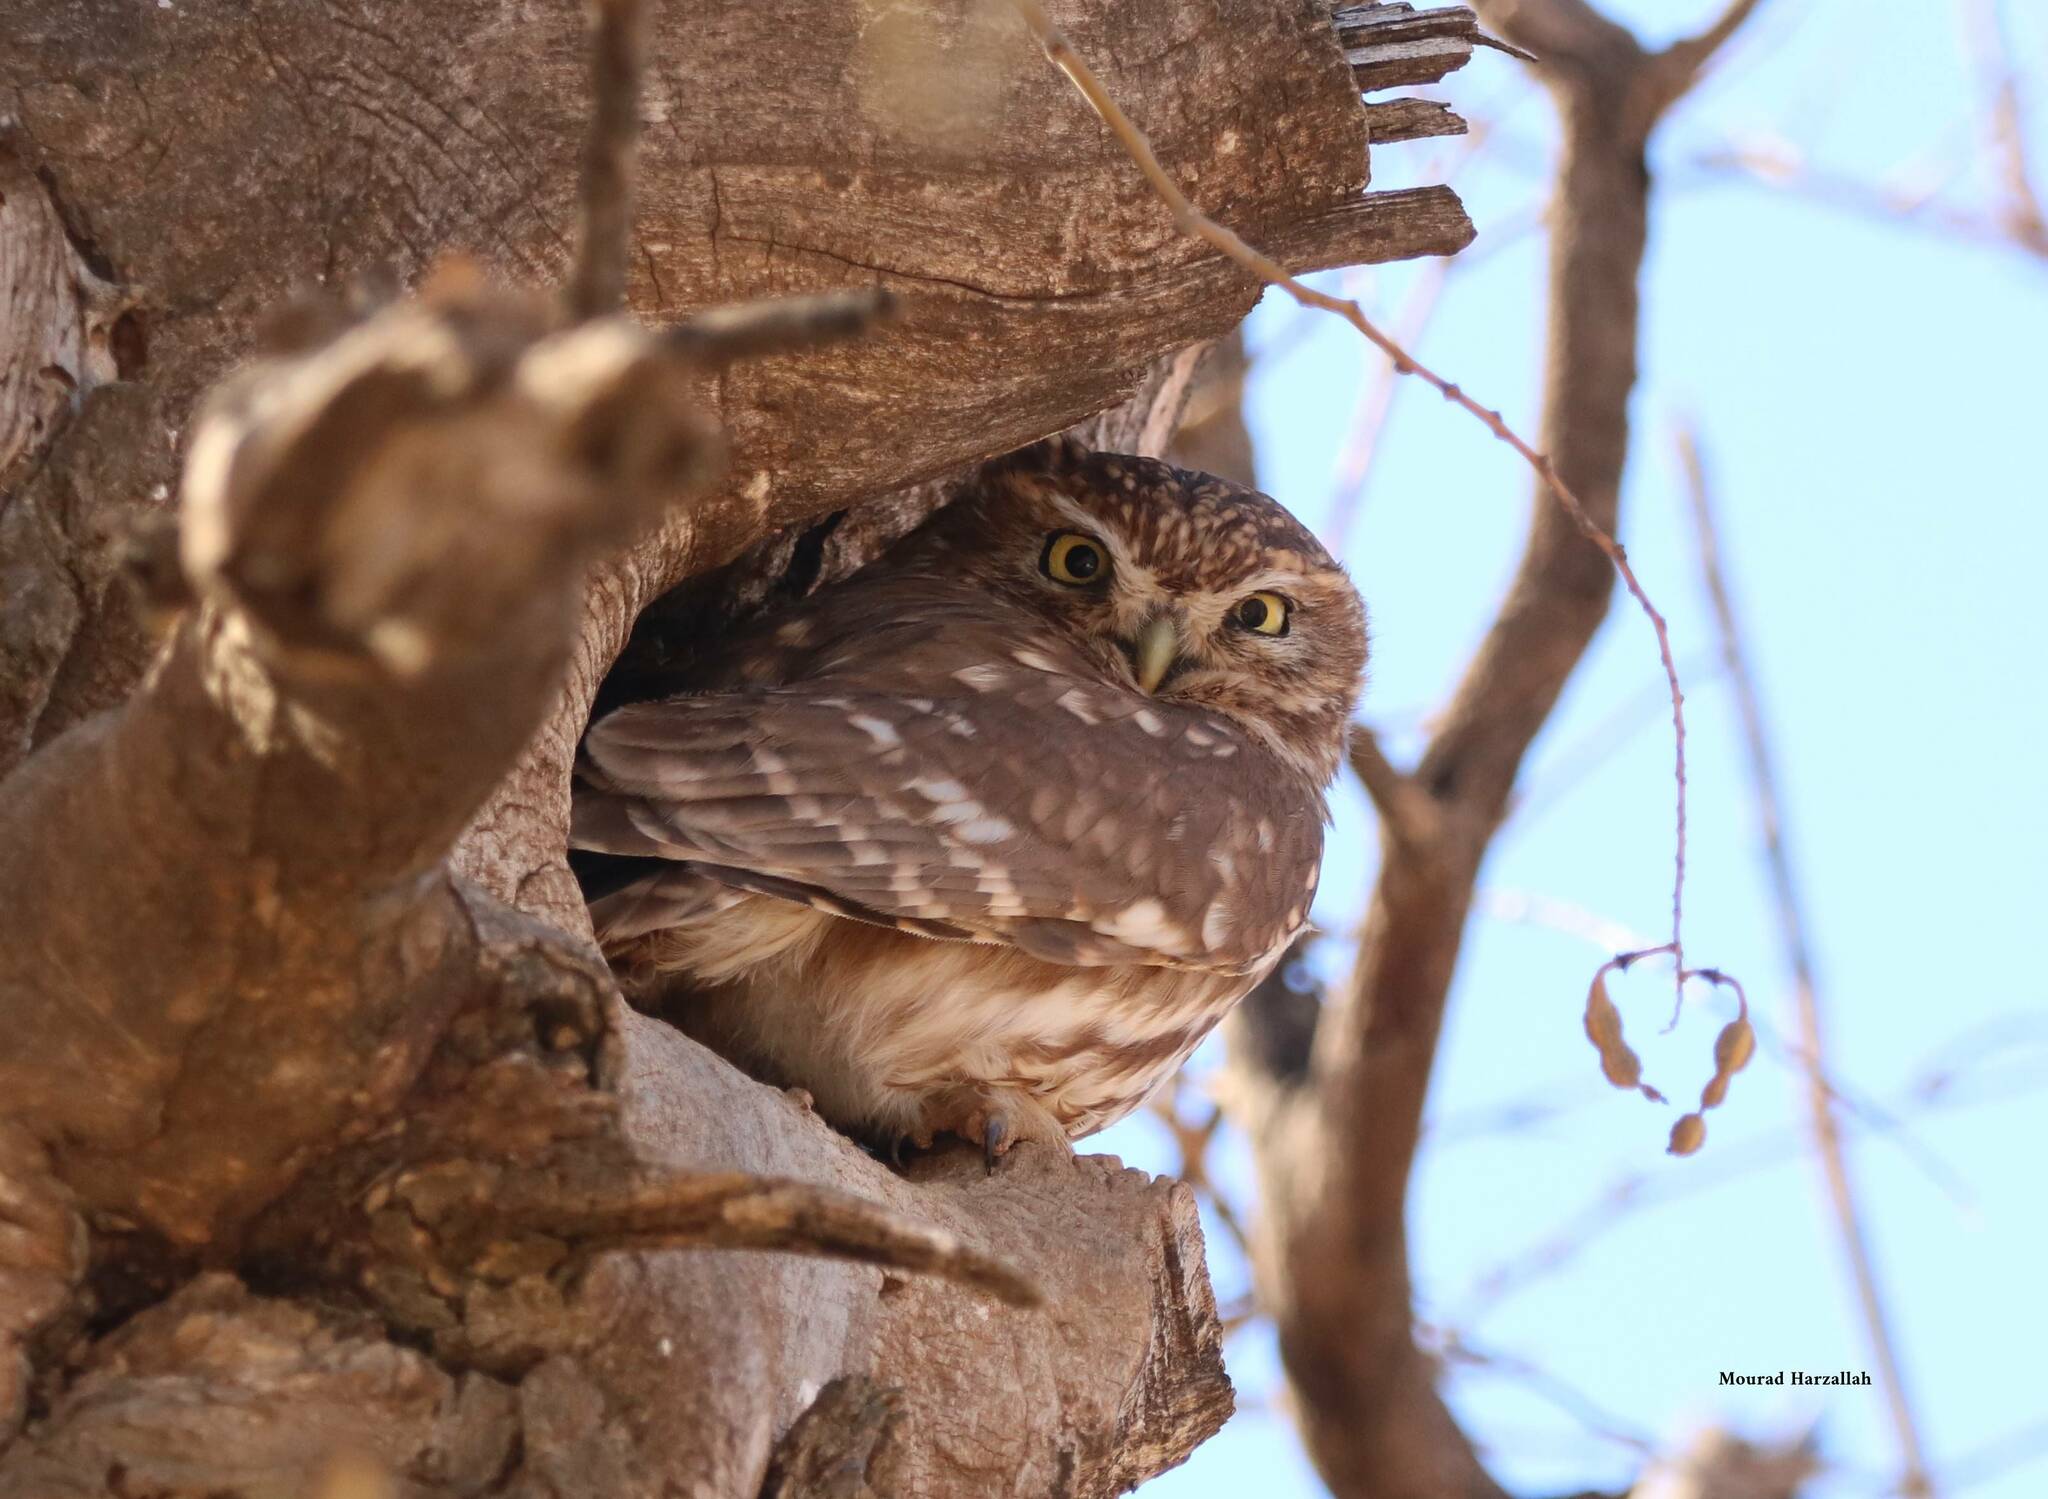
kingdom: Animalia
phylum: Chordata
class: Aves
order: Strigiformes
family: Strigidae
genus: Athene
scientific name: Athene noctua
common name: Little owl
